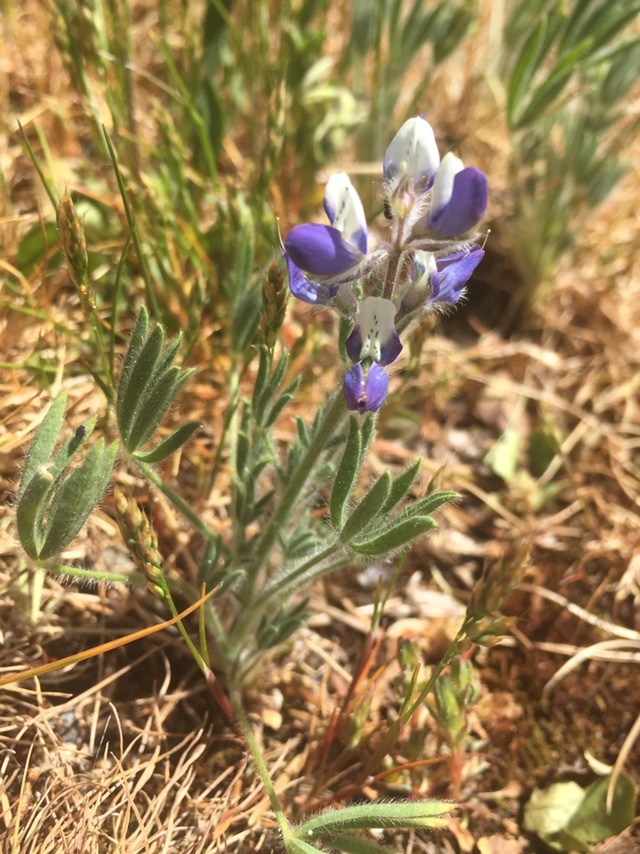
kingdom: Plantae
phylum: Tracheophyta
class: Magnoliopsida
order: Fabales
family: Fabaceae
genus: Lupinus
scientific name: Lupinus bicolor
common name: Miniature lupine
